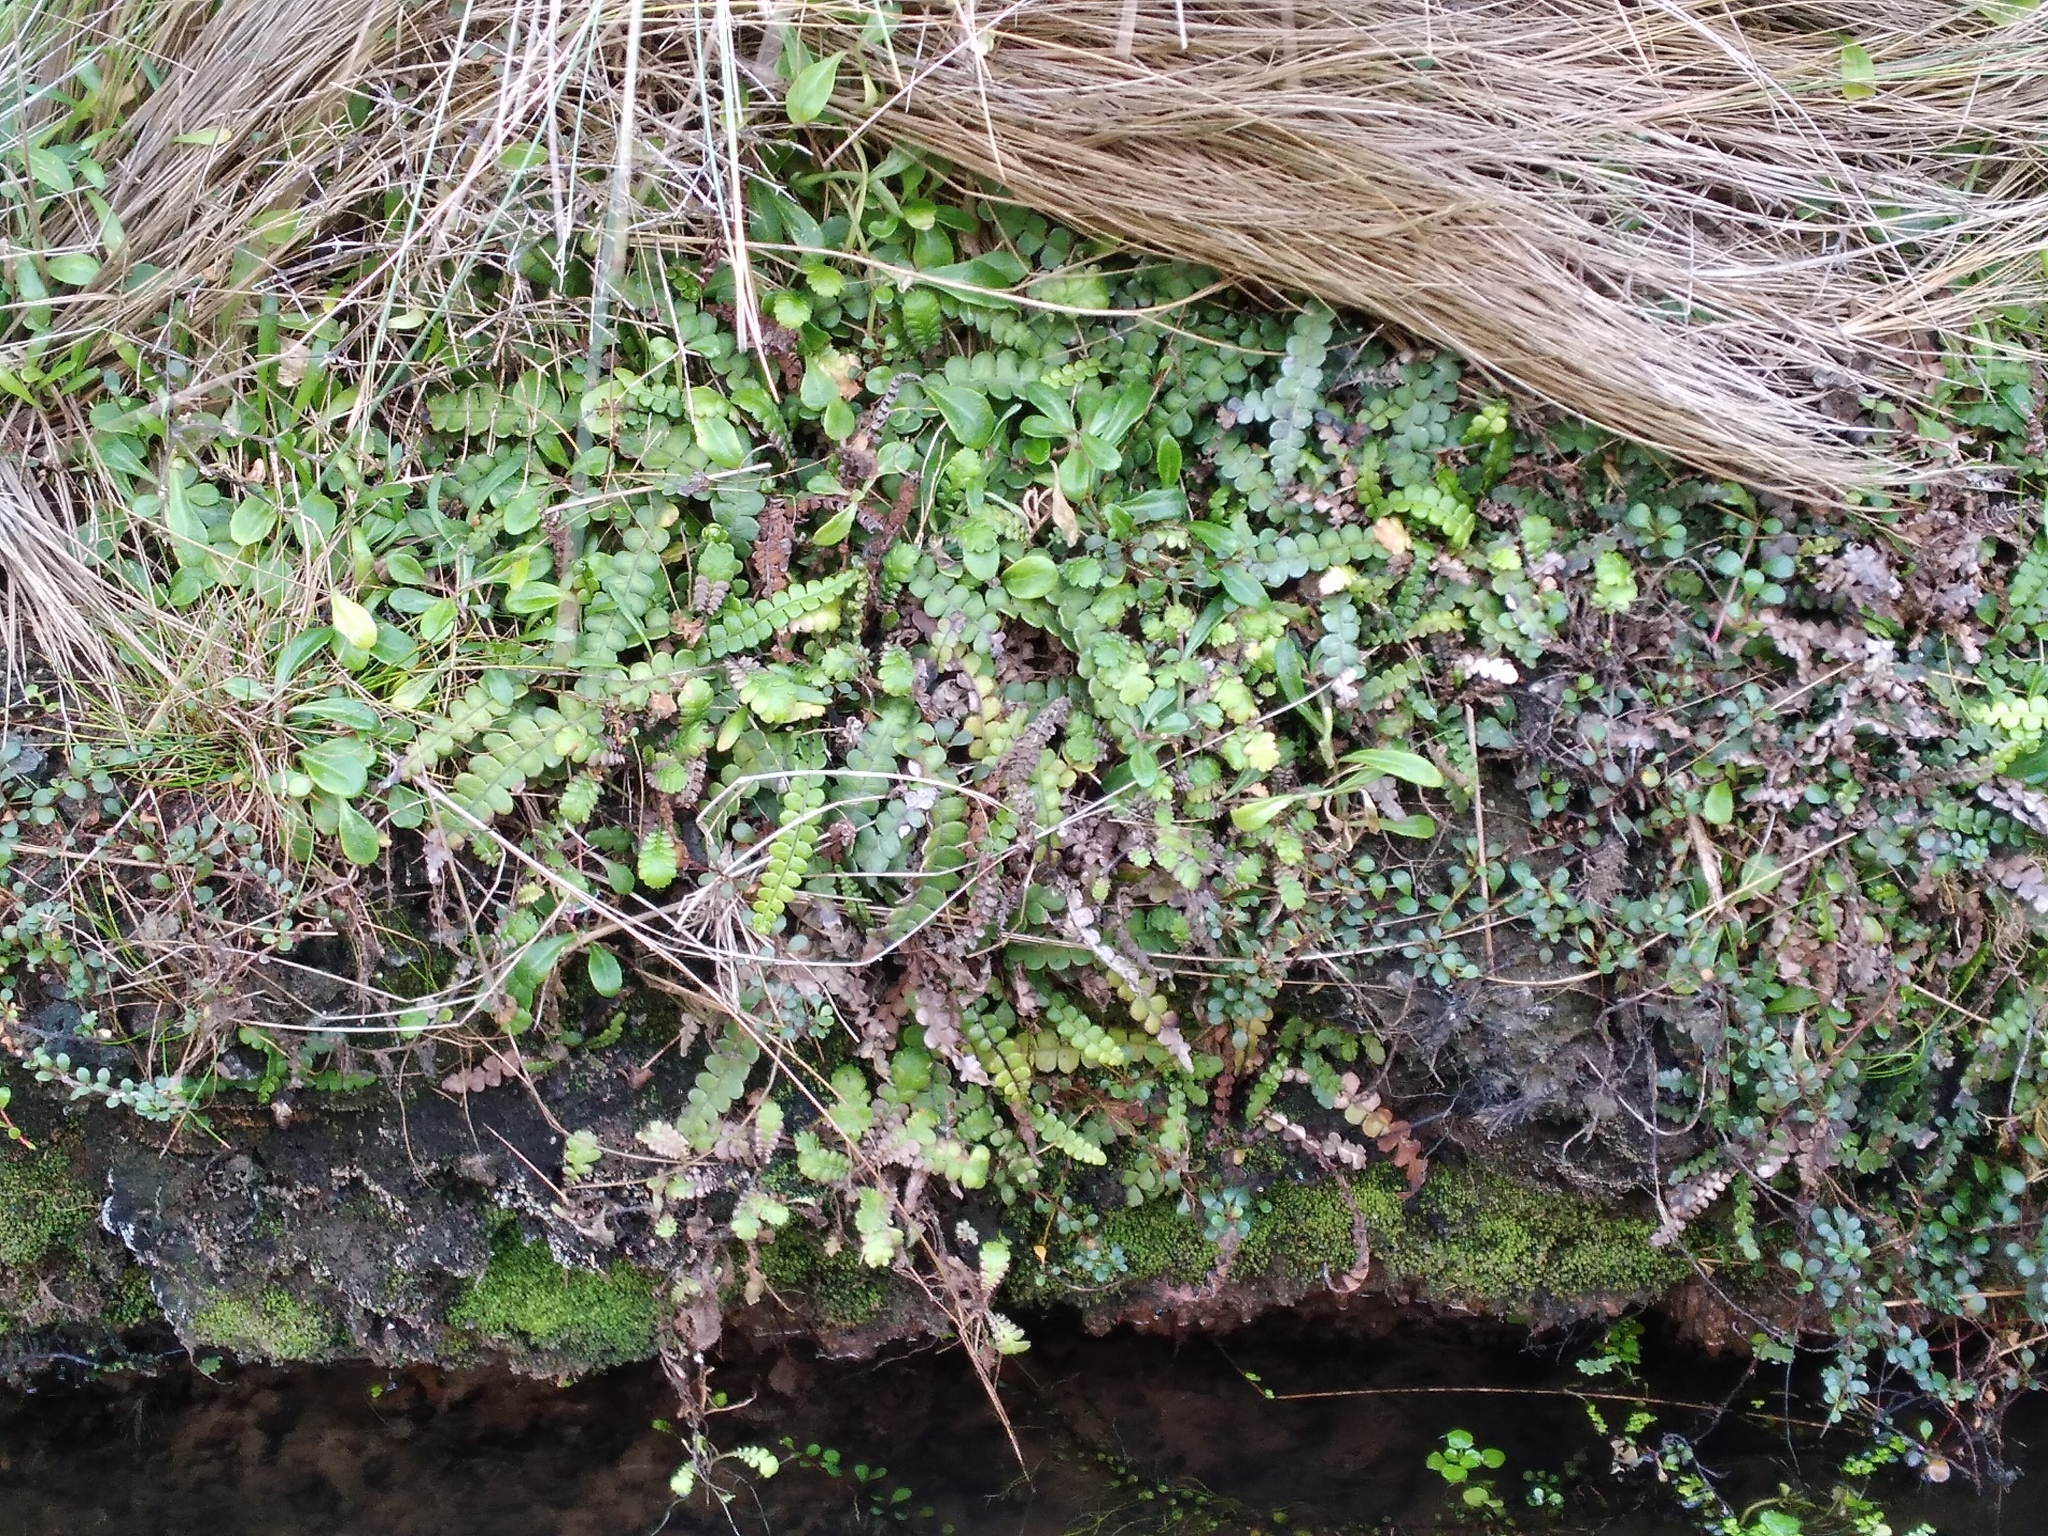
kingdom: Plantae
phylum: Tracheophyta
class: Polypodiopsida
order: Polypodiales
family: Blechnaceae
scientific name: Blechnaceae
